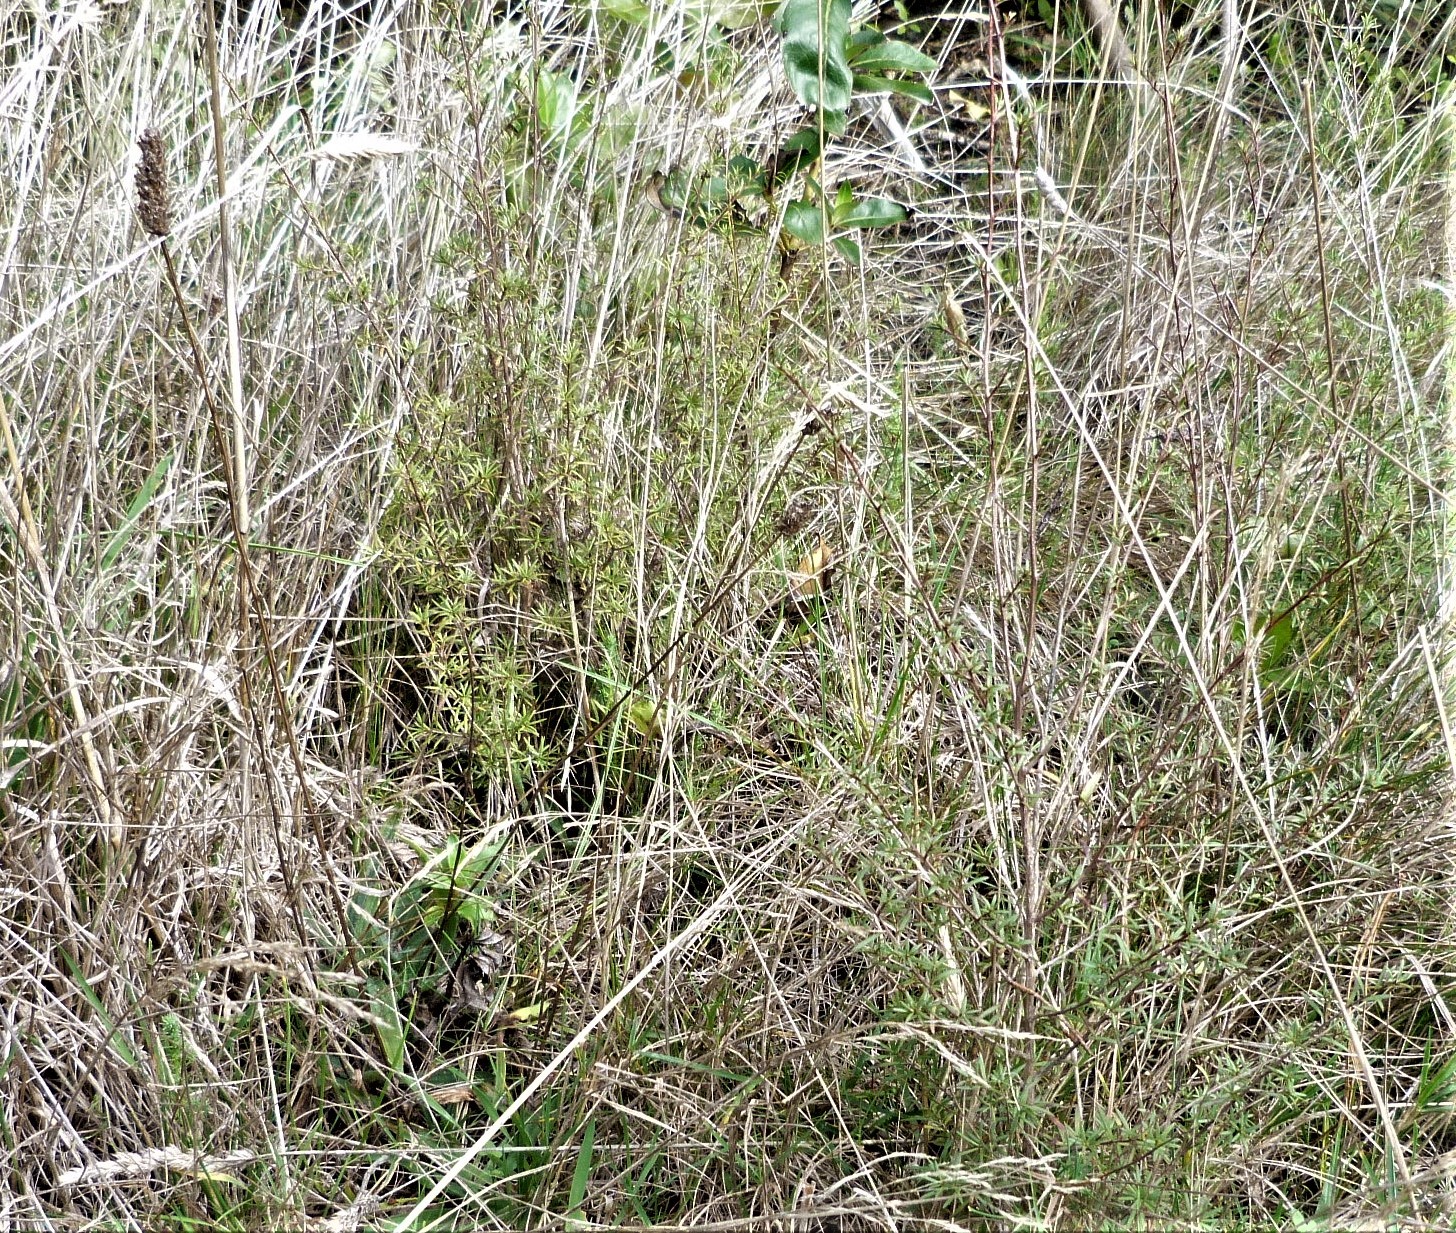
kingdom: Plantae
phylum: Tracheophyta
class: Magnoliopsida
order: Myrtales
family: Myrtaceae
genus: Kunzea
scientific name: Kunzea robusta
